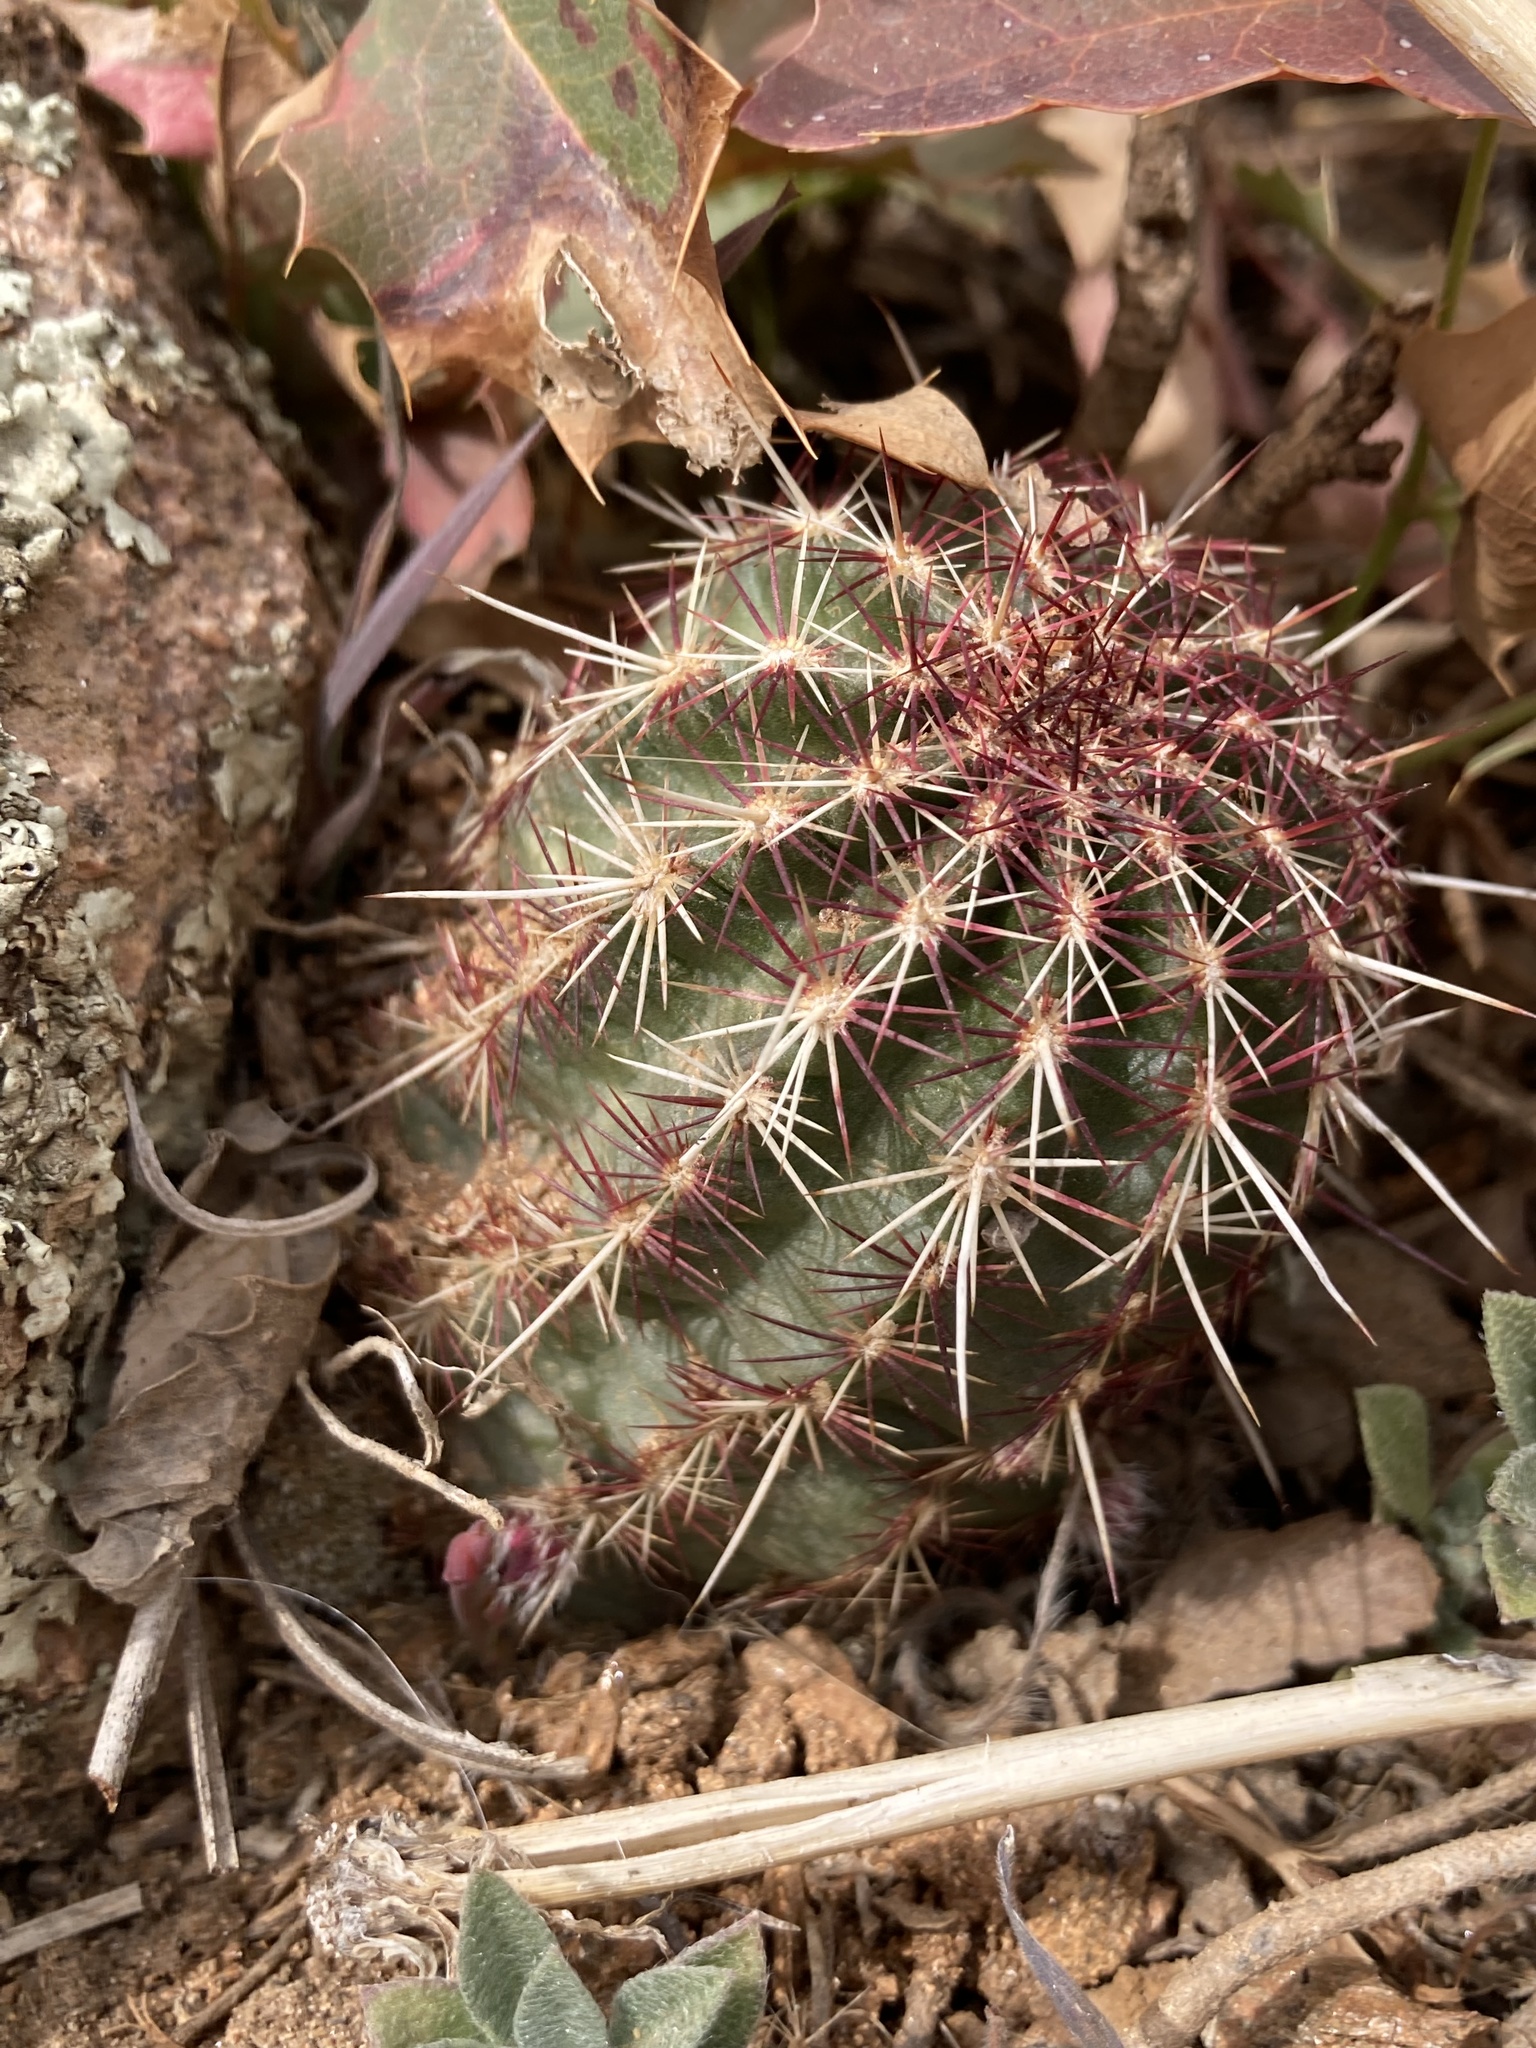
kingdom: Plantae
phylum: Tracheophyta
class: Magnoliopsida
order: Caryophyllales
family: Cactaceae
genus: Echinocereus
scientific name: Echinocereus viridiflorus
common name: Nylon hedgehog cactus
